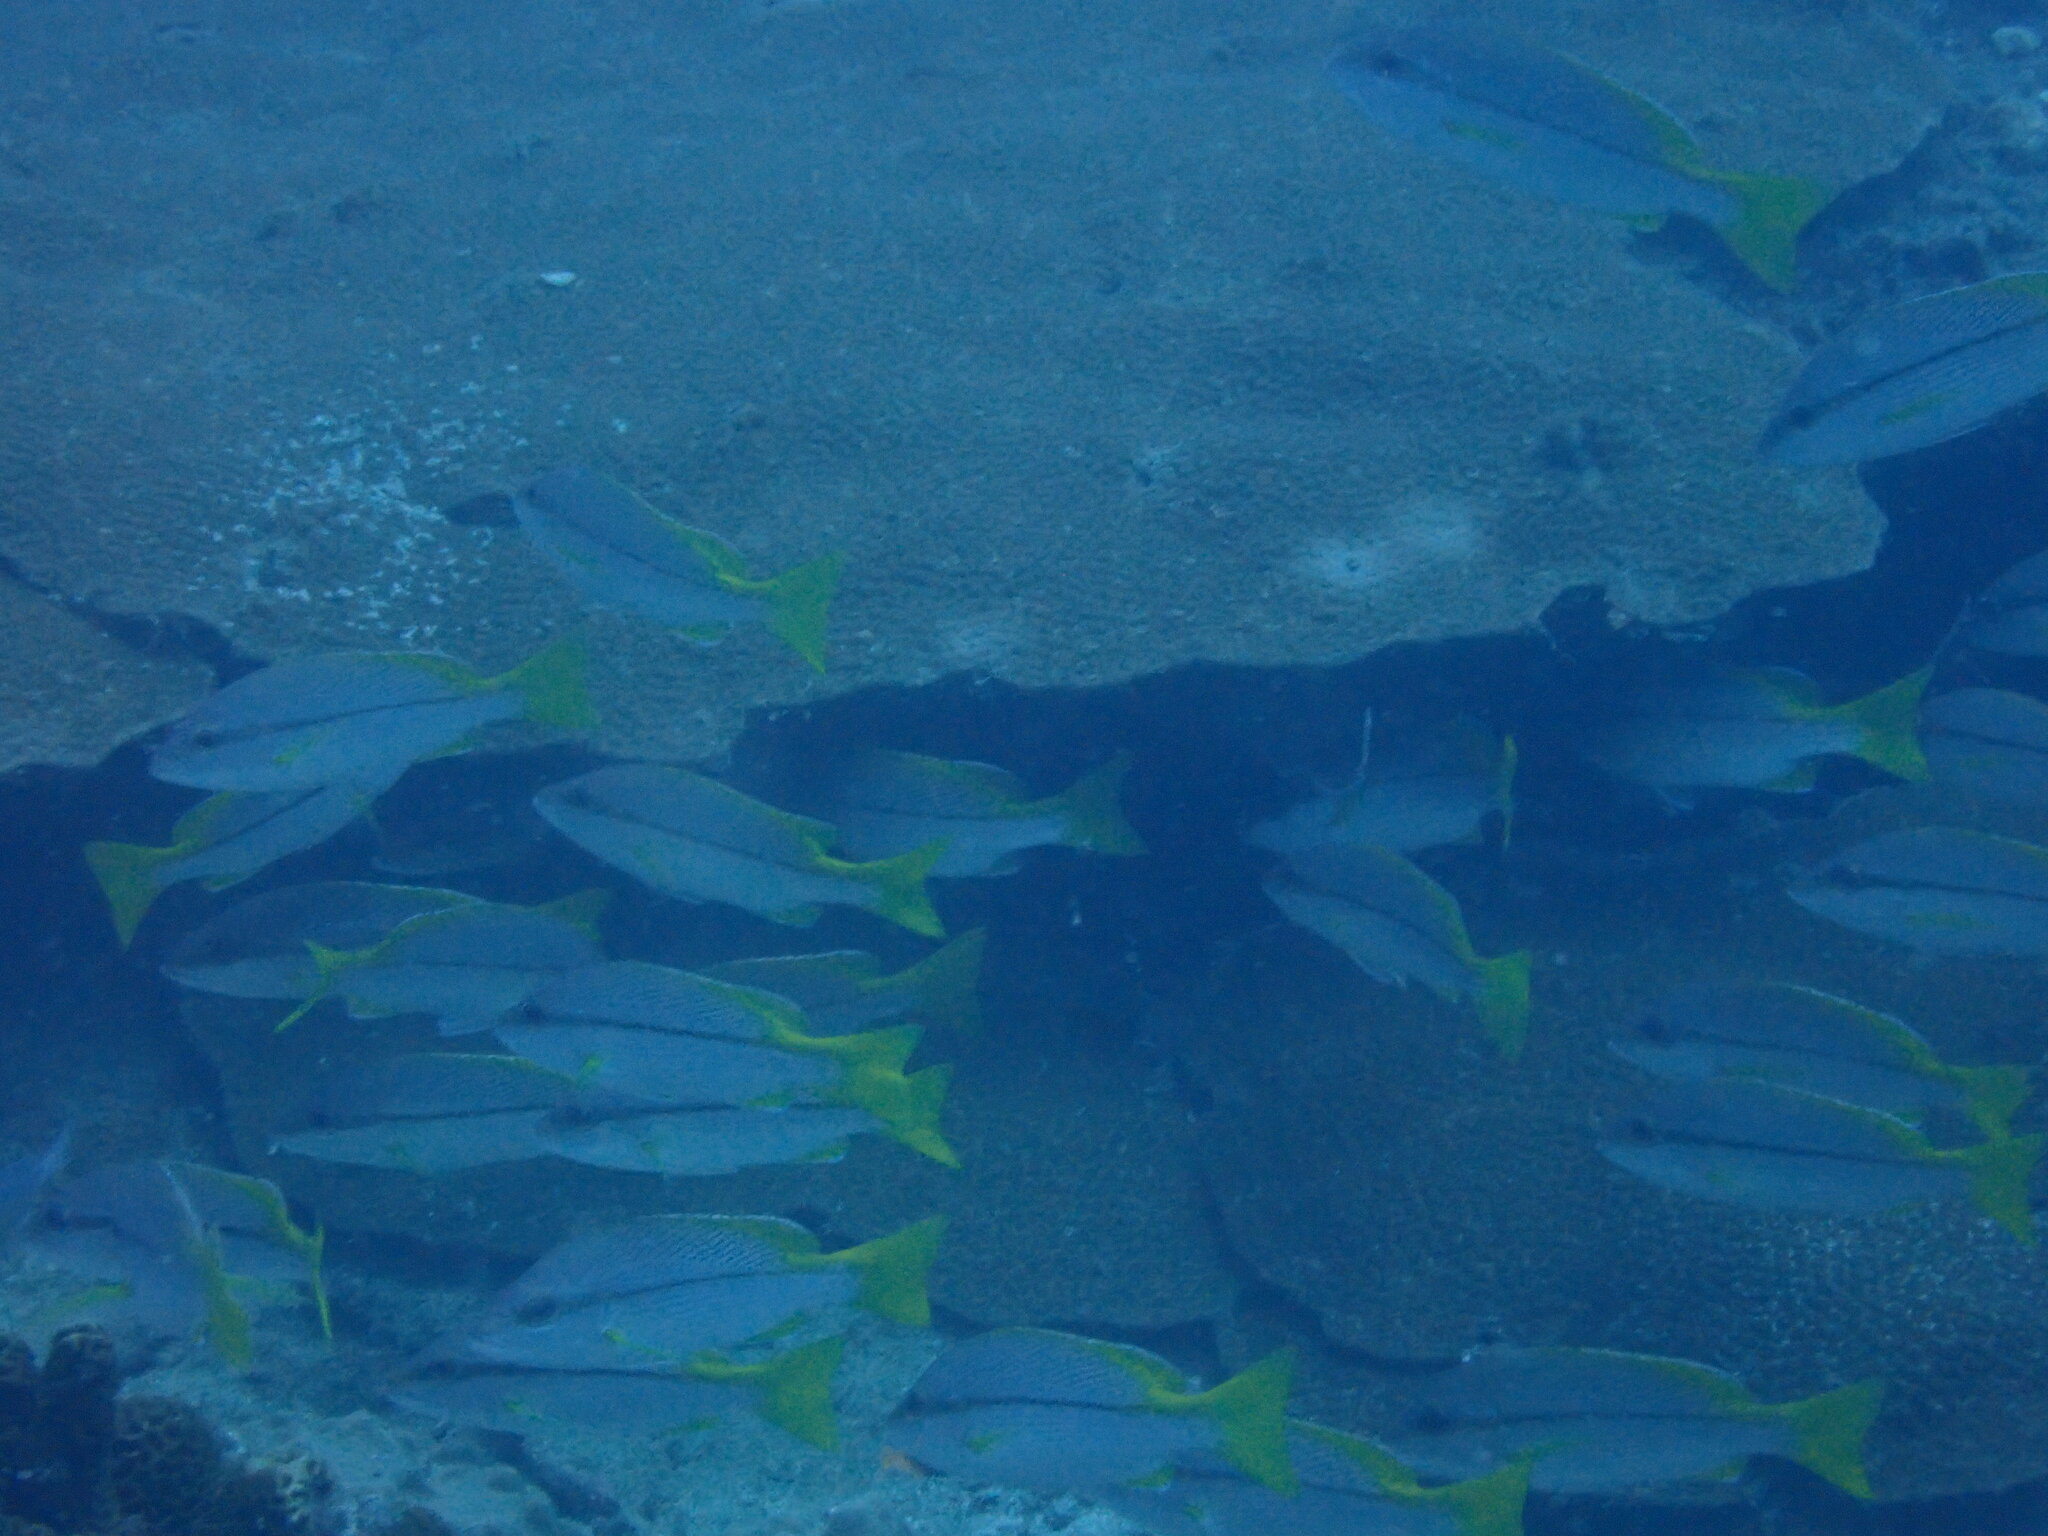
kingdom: Animalia
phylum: Chordata
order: Perciformes
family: Lutjanidae
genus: Lutjanus
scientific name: Lutjanus vitta
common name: Brownstripe red snapper
